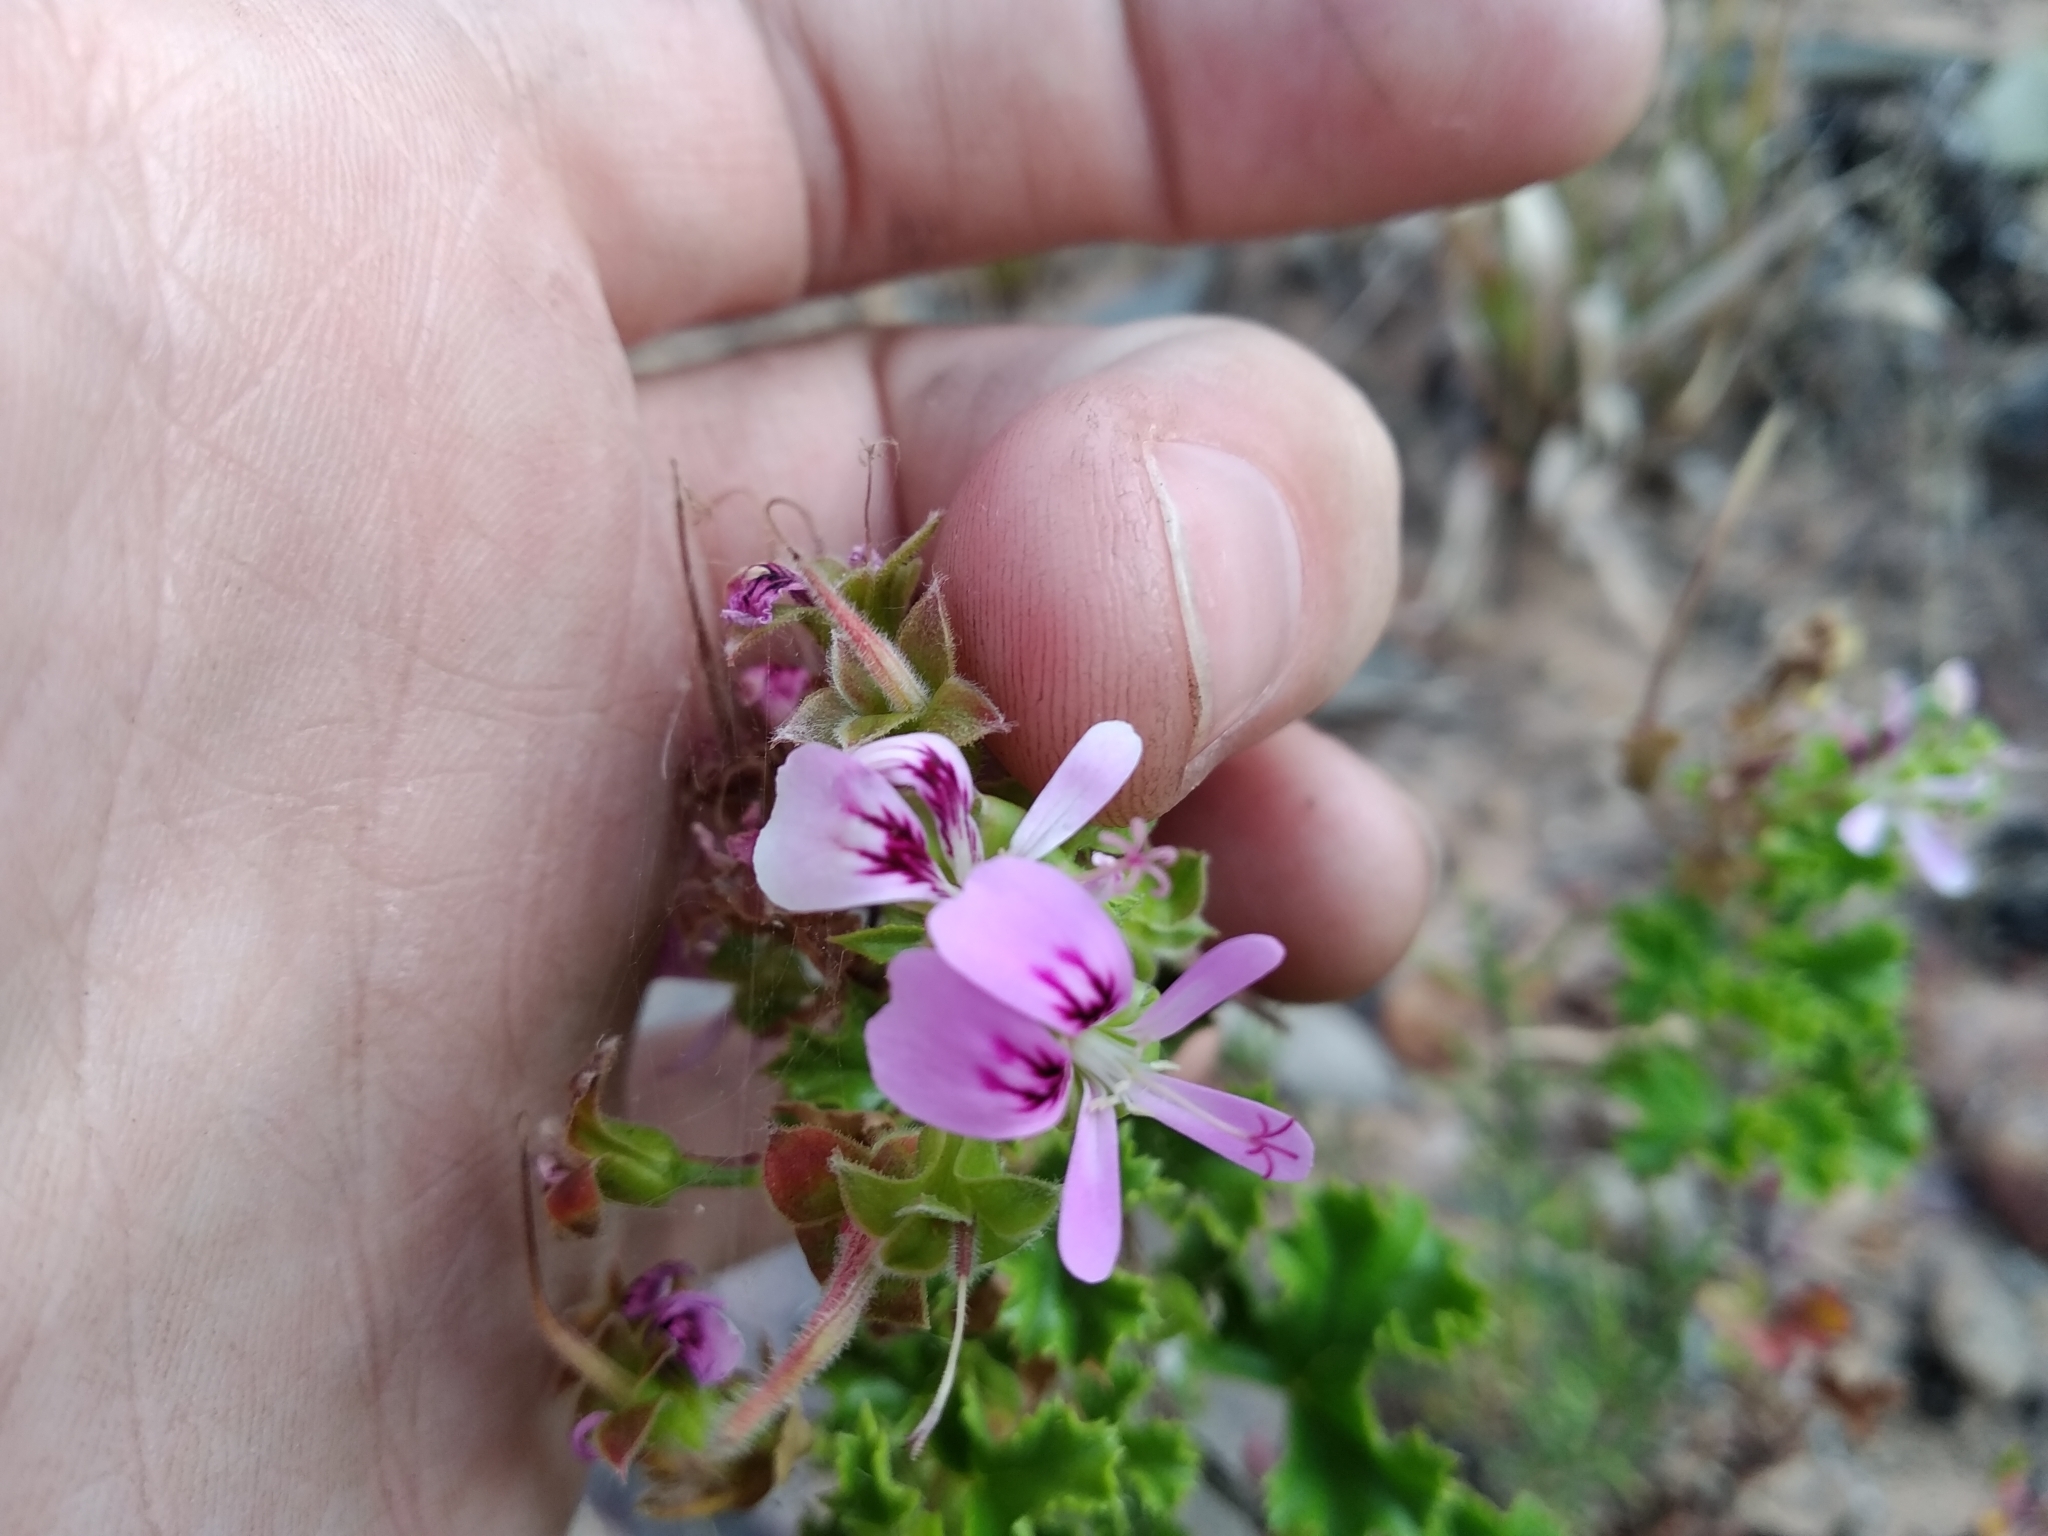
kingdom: Plantae
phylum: Tracheophyta
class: Magnoliopsida
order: Geraniales
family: Geraniaceae
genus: Pelargonium
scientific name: Pelargonium scabroide
